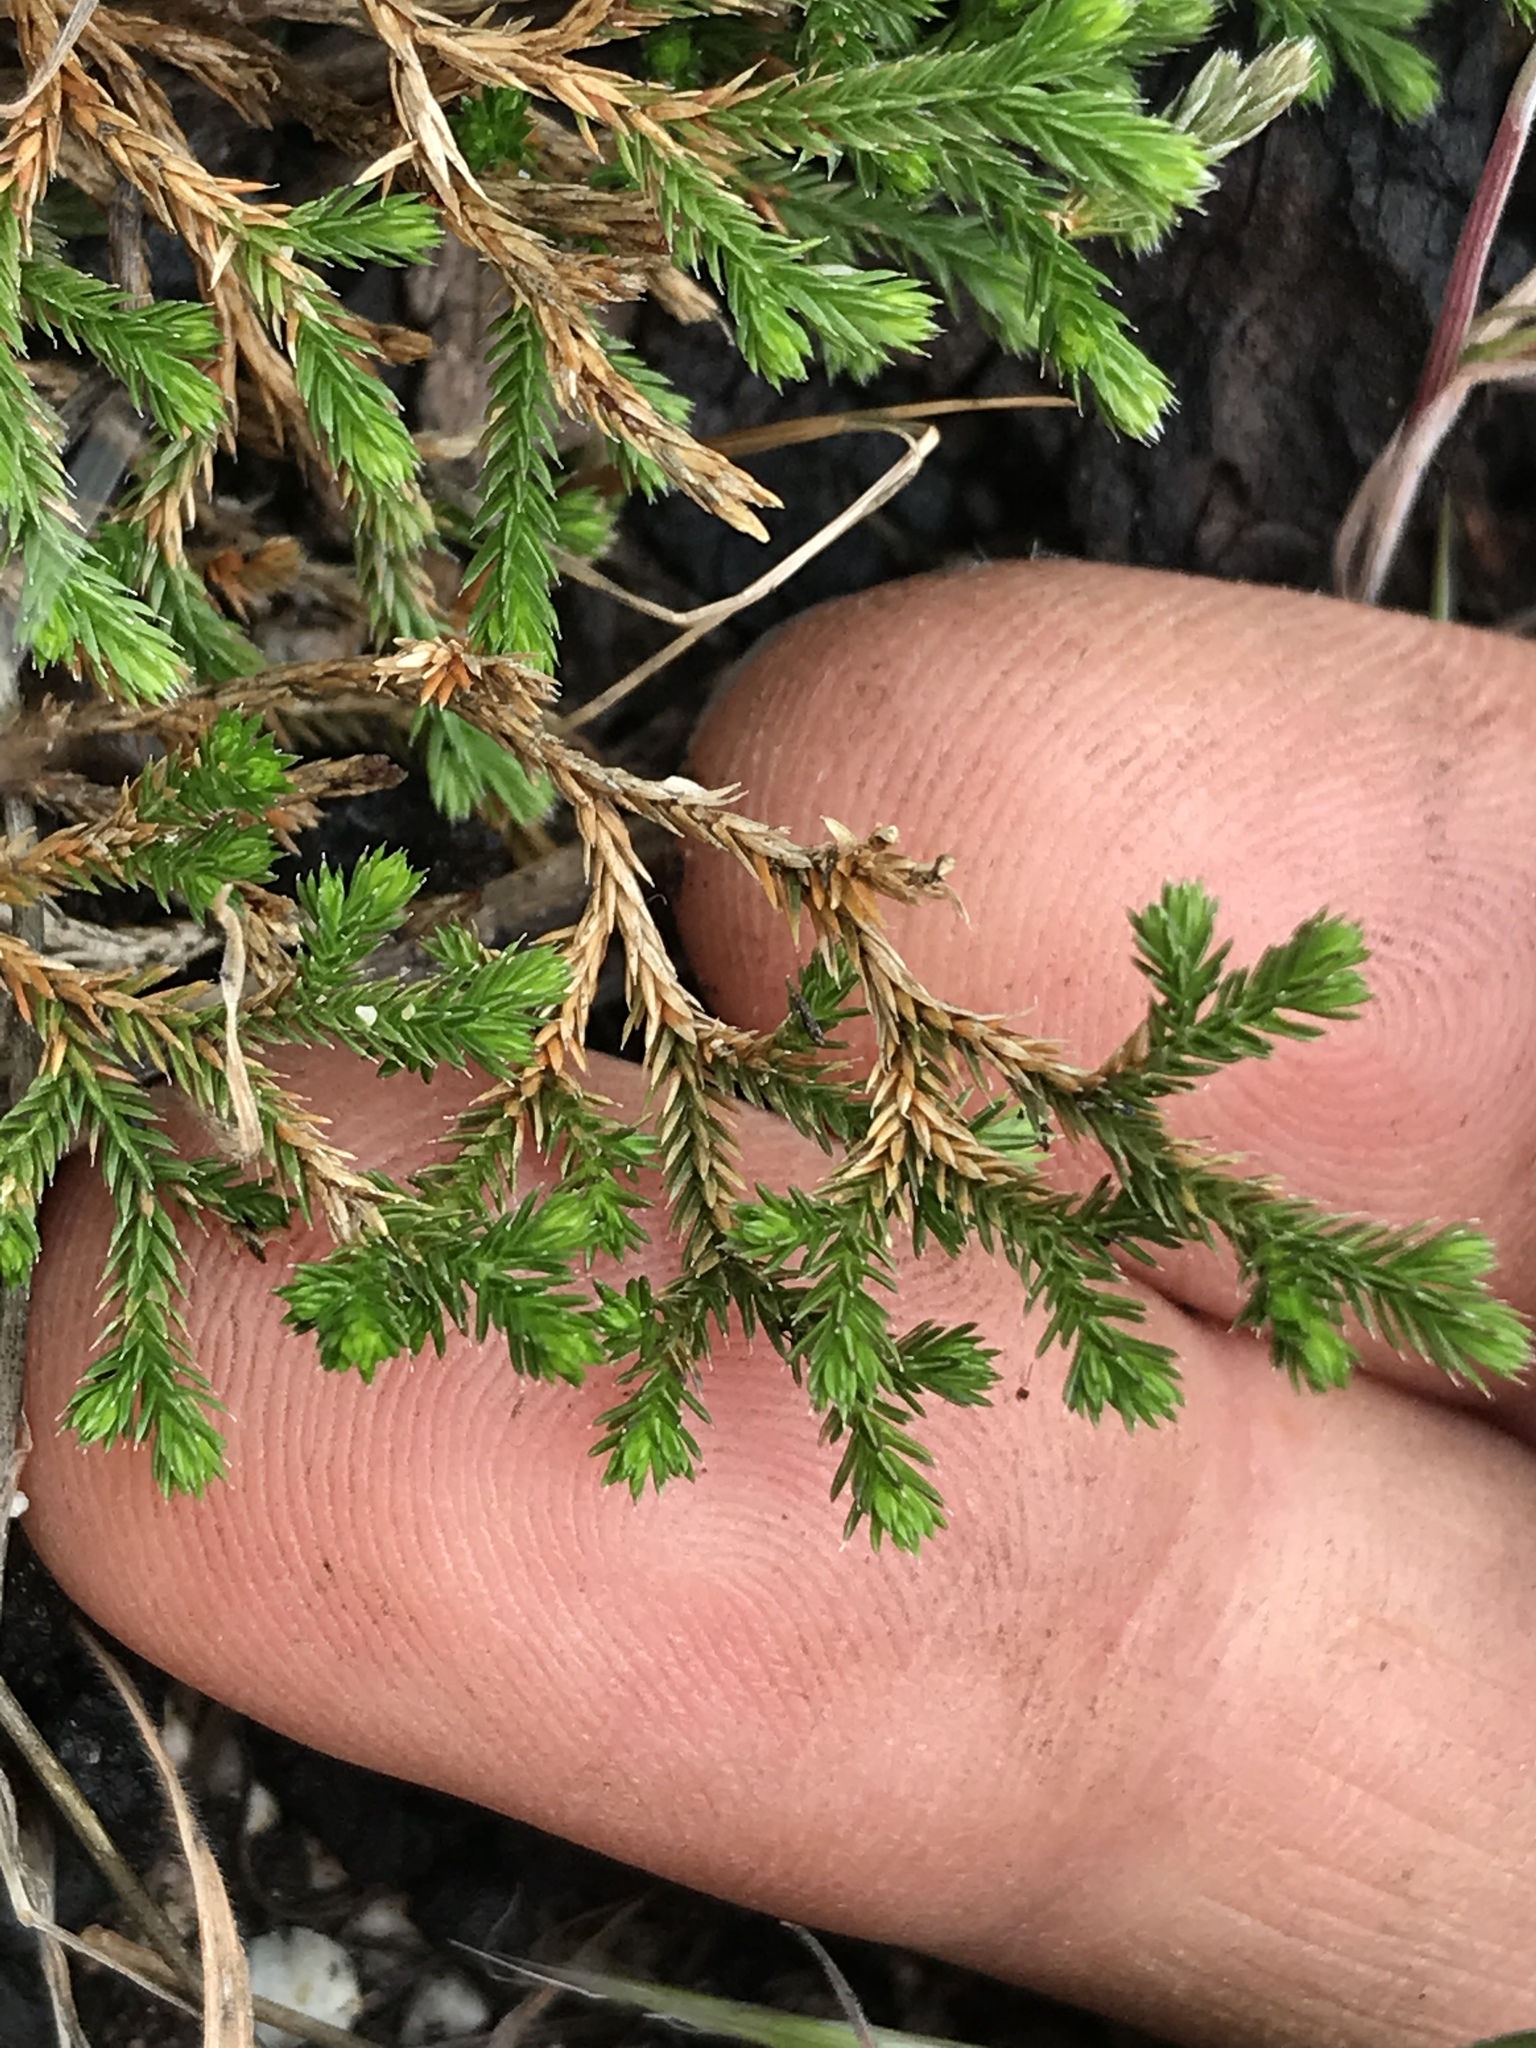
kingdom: Plantae
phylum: Tracheophyta
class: Lycopodiopsida
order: Selaginellales
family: Selaginellaceae
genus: Selaginella
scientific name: Selaginella bigelovii
